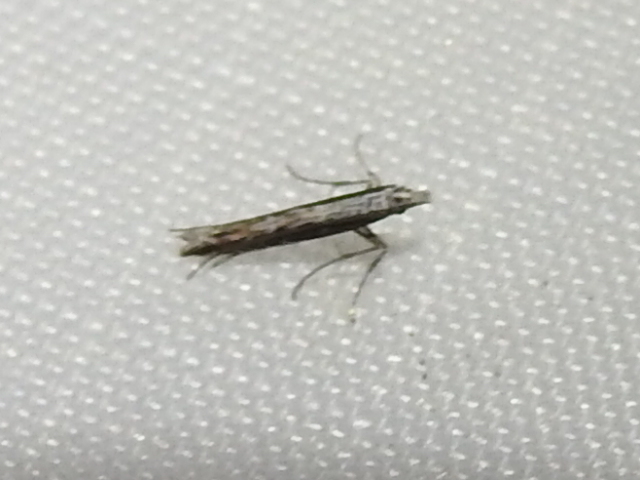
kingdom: Plantae
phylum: Rhodophyta
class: Florideophyceae
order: Gracilariales
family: Gracilariaceae
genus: Gracilaria
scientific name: Gracilaria
